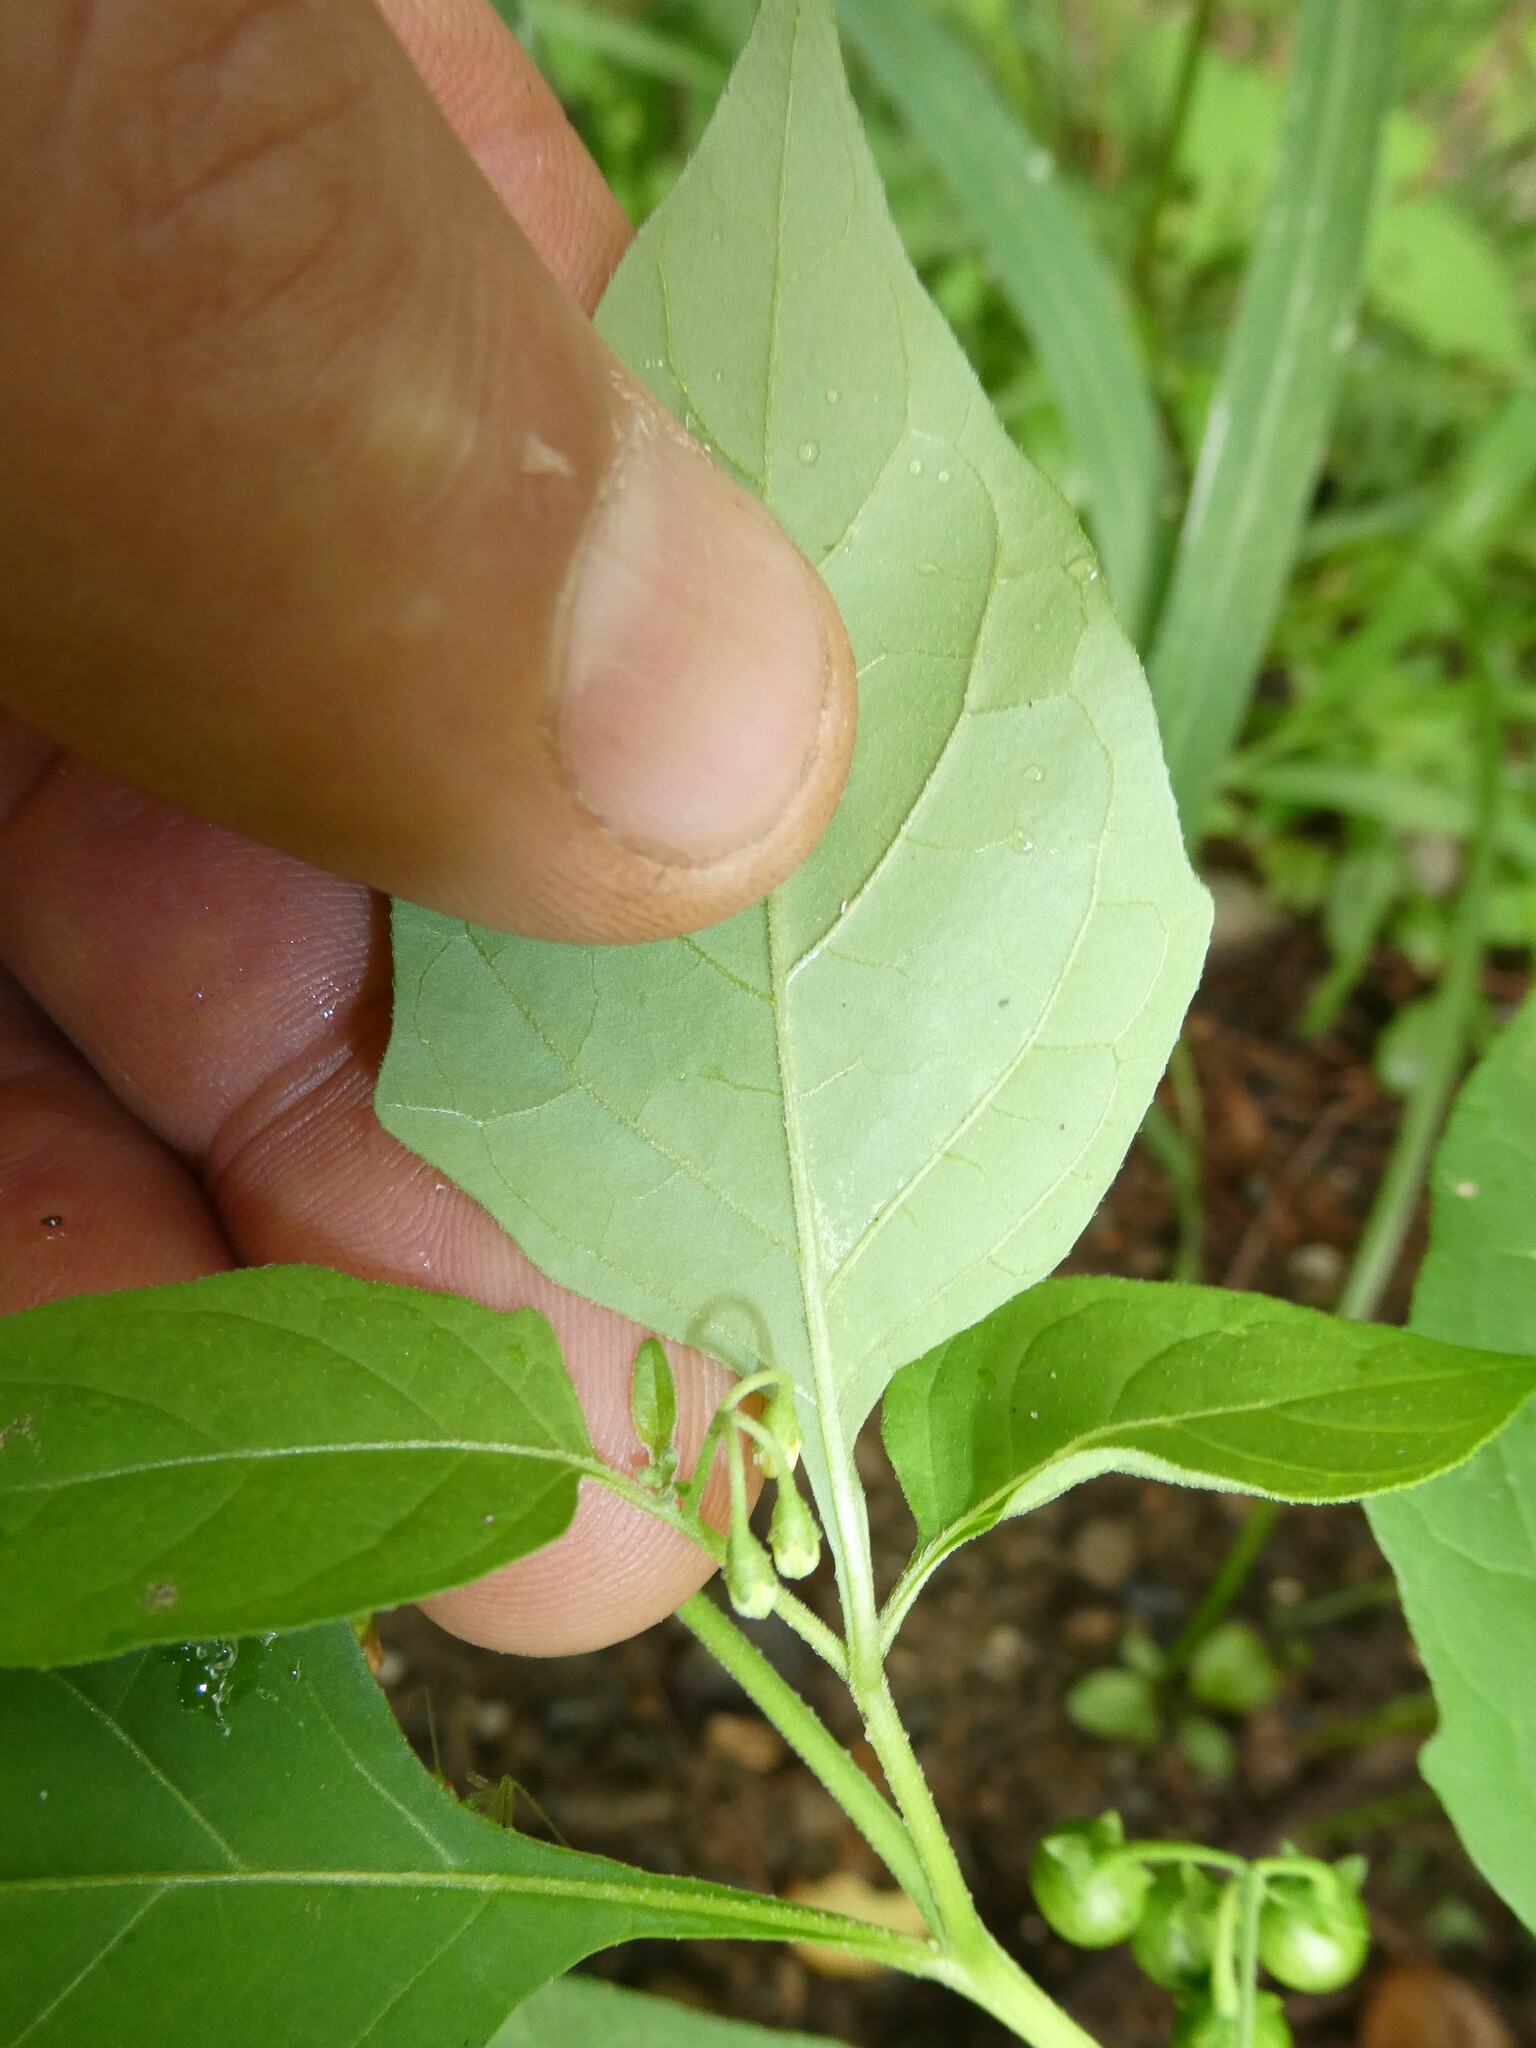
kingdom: Plantae
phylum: Tracheophyta
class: Magnoliopsida
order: Solanales
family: Solanaceae
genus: Solanum
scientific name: Solanum emulans
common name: Eastern black nightshade
